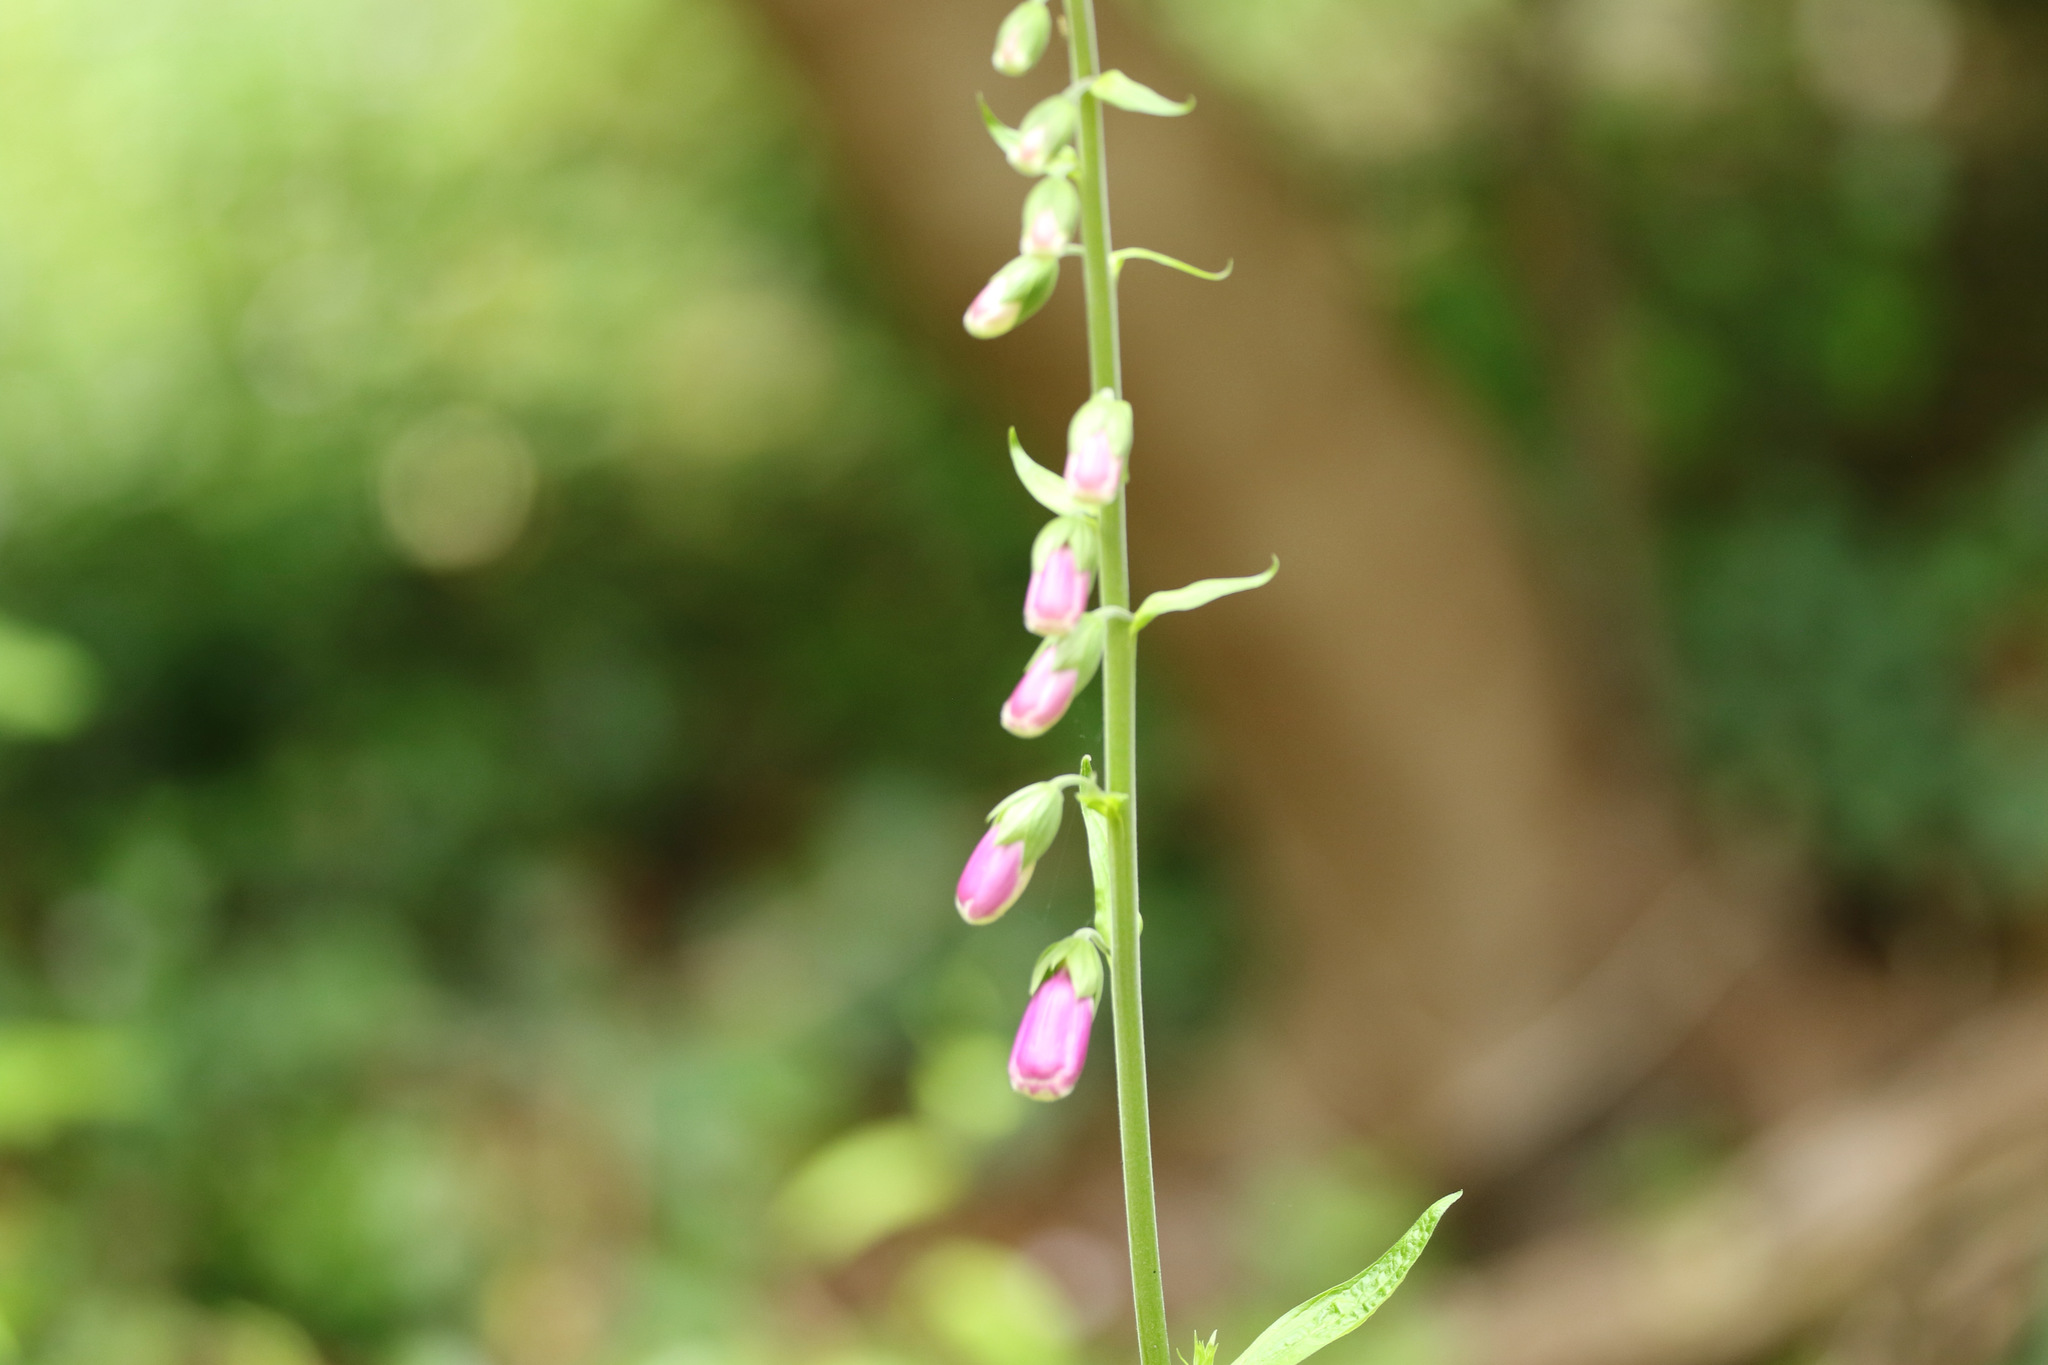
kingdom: Plantae
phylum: Tracheophyta
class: Magnoliopsida
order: Lamiales
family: Plantaginaceae
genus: Digitalis
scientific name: Digitalis purpurea
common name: Foxglove
